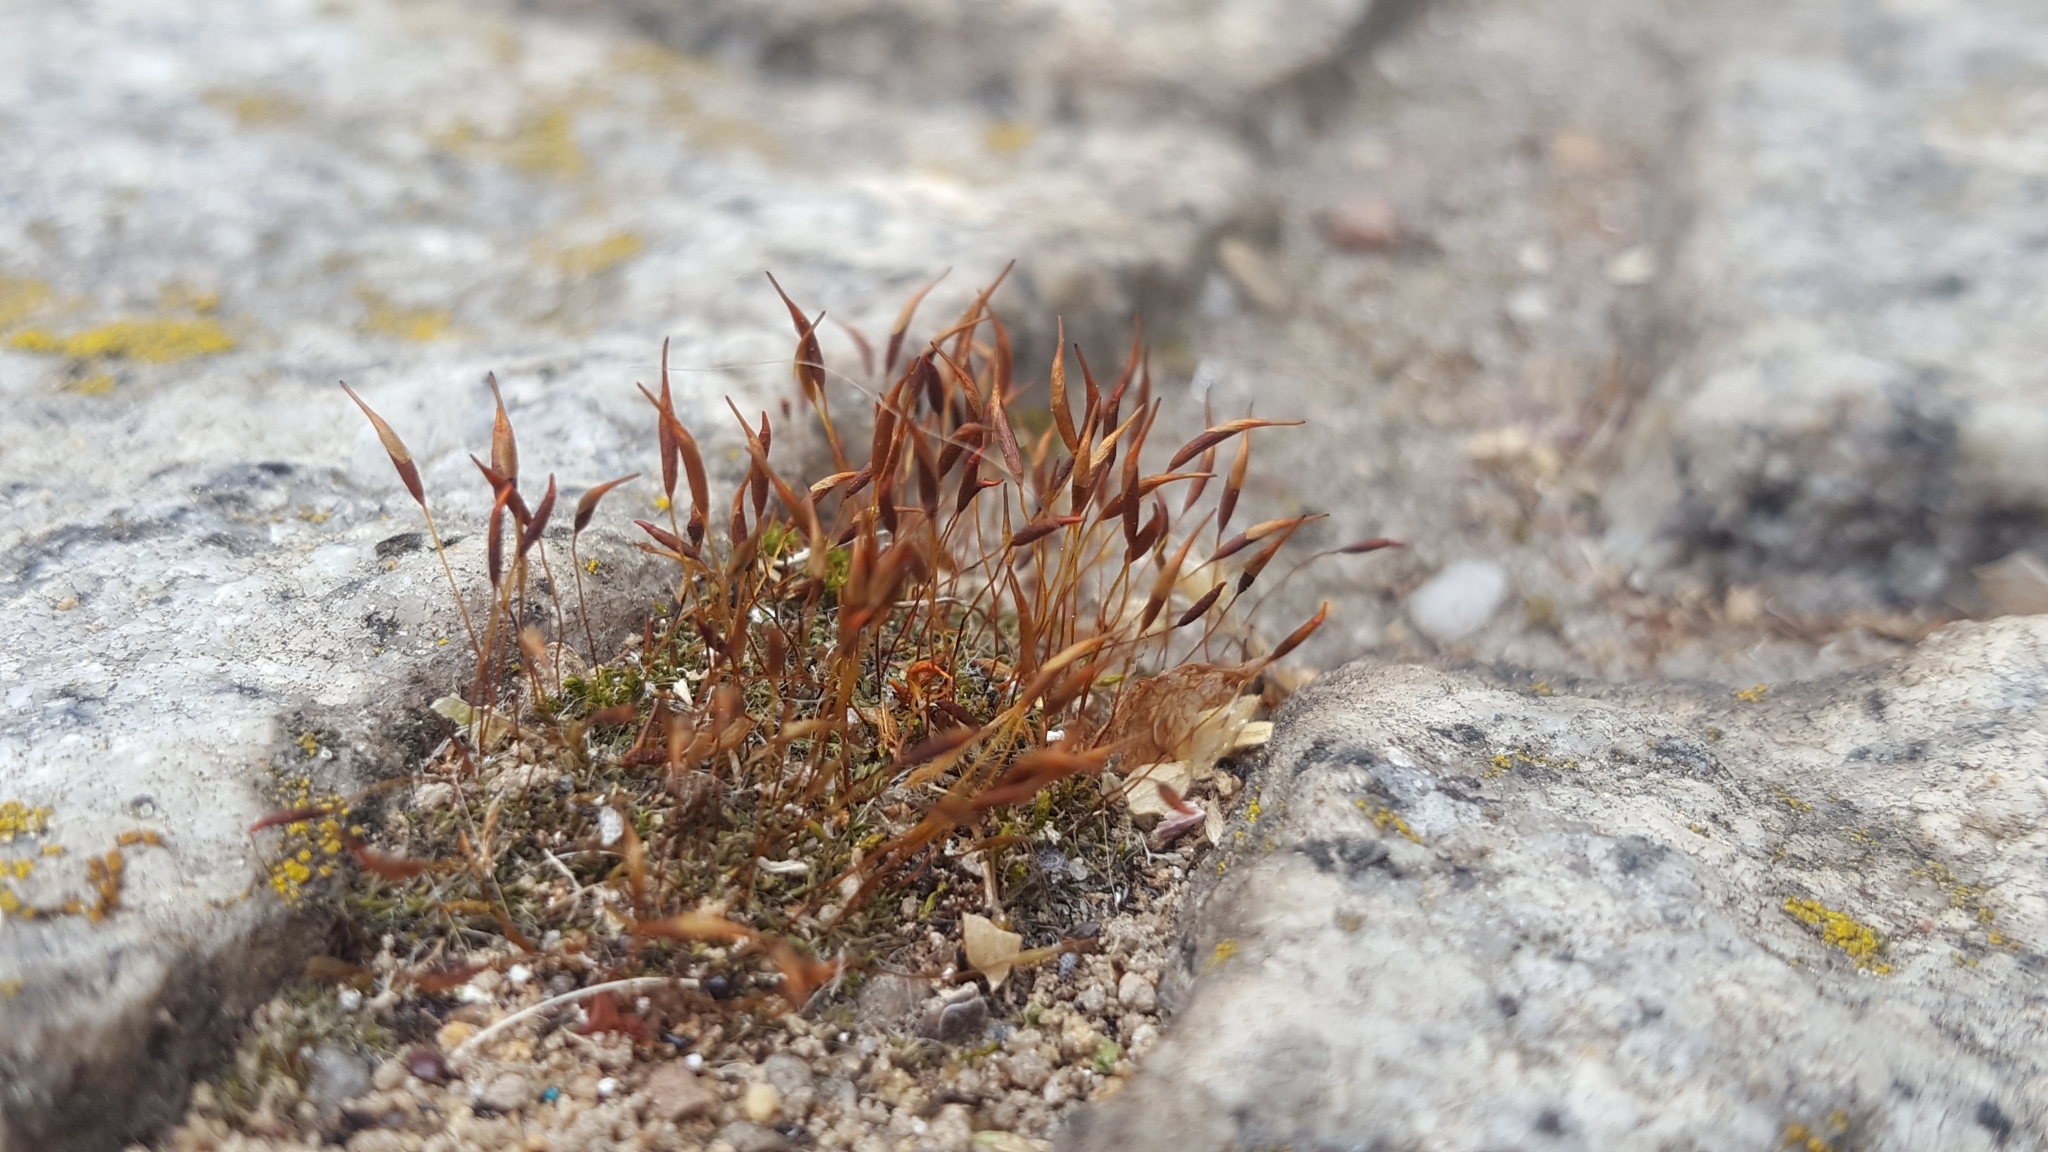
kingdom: Plantae
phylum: Bryophyta
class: Bryopsida
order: Pottiales
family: Pottiaceae
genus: Tortula
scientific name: Tortula muralis
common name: Wall screw-moss
